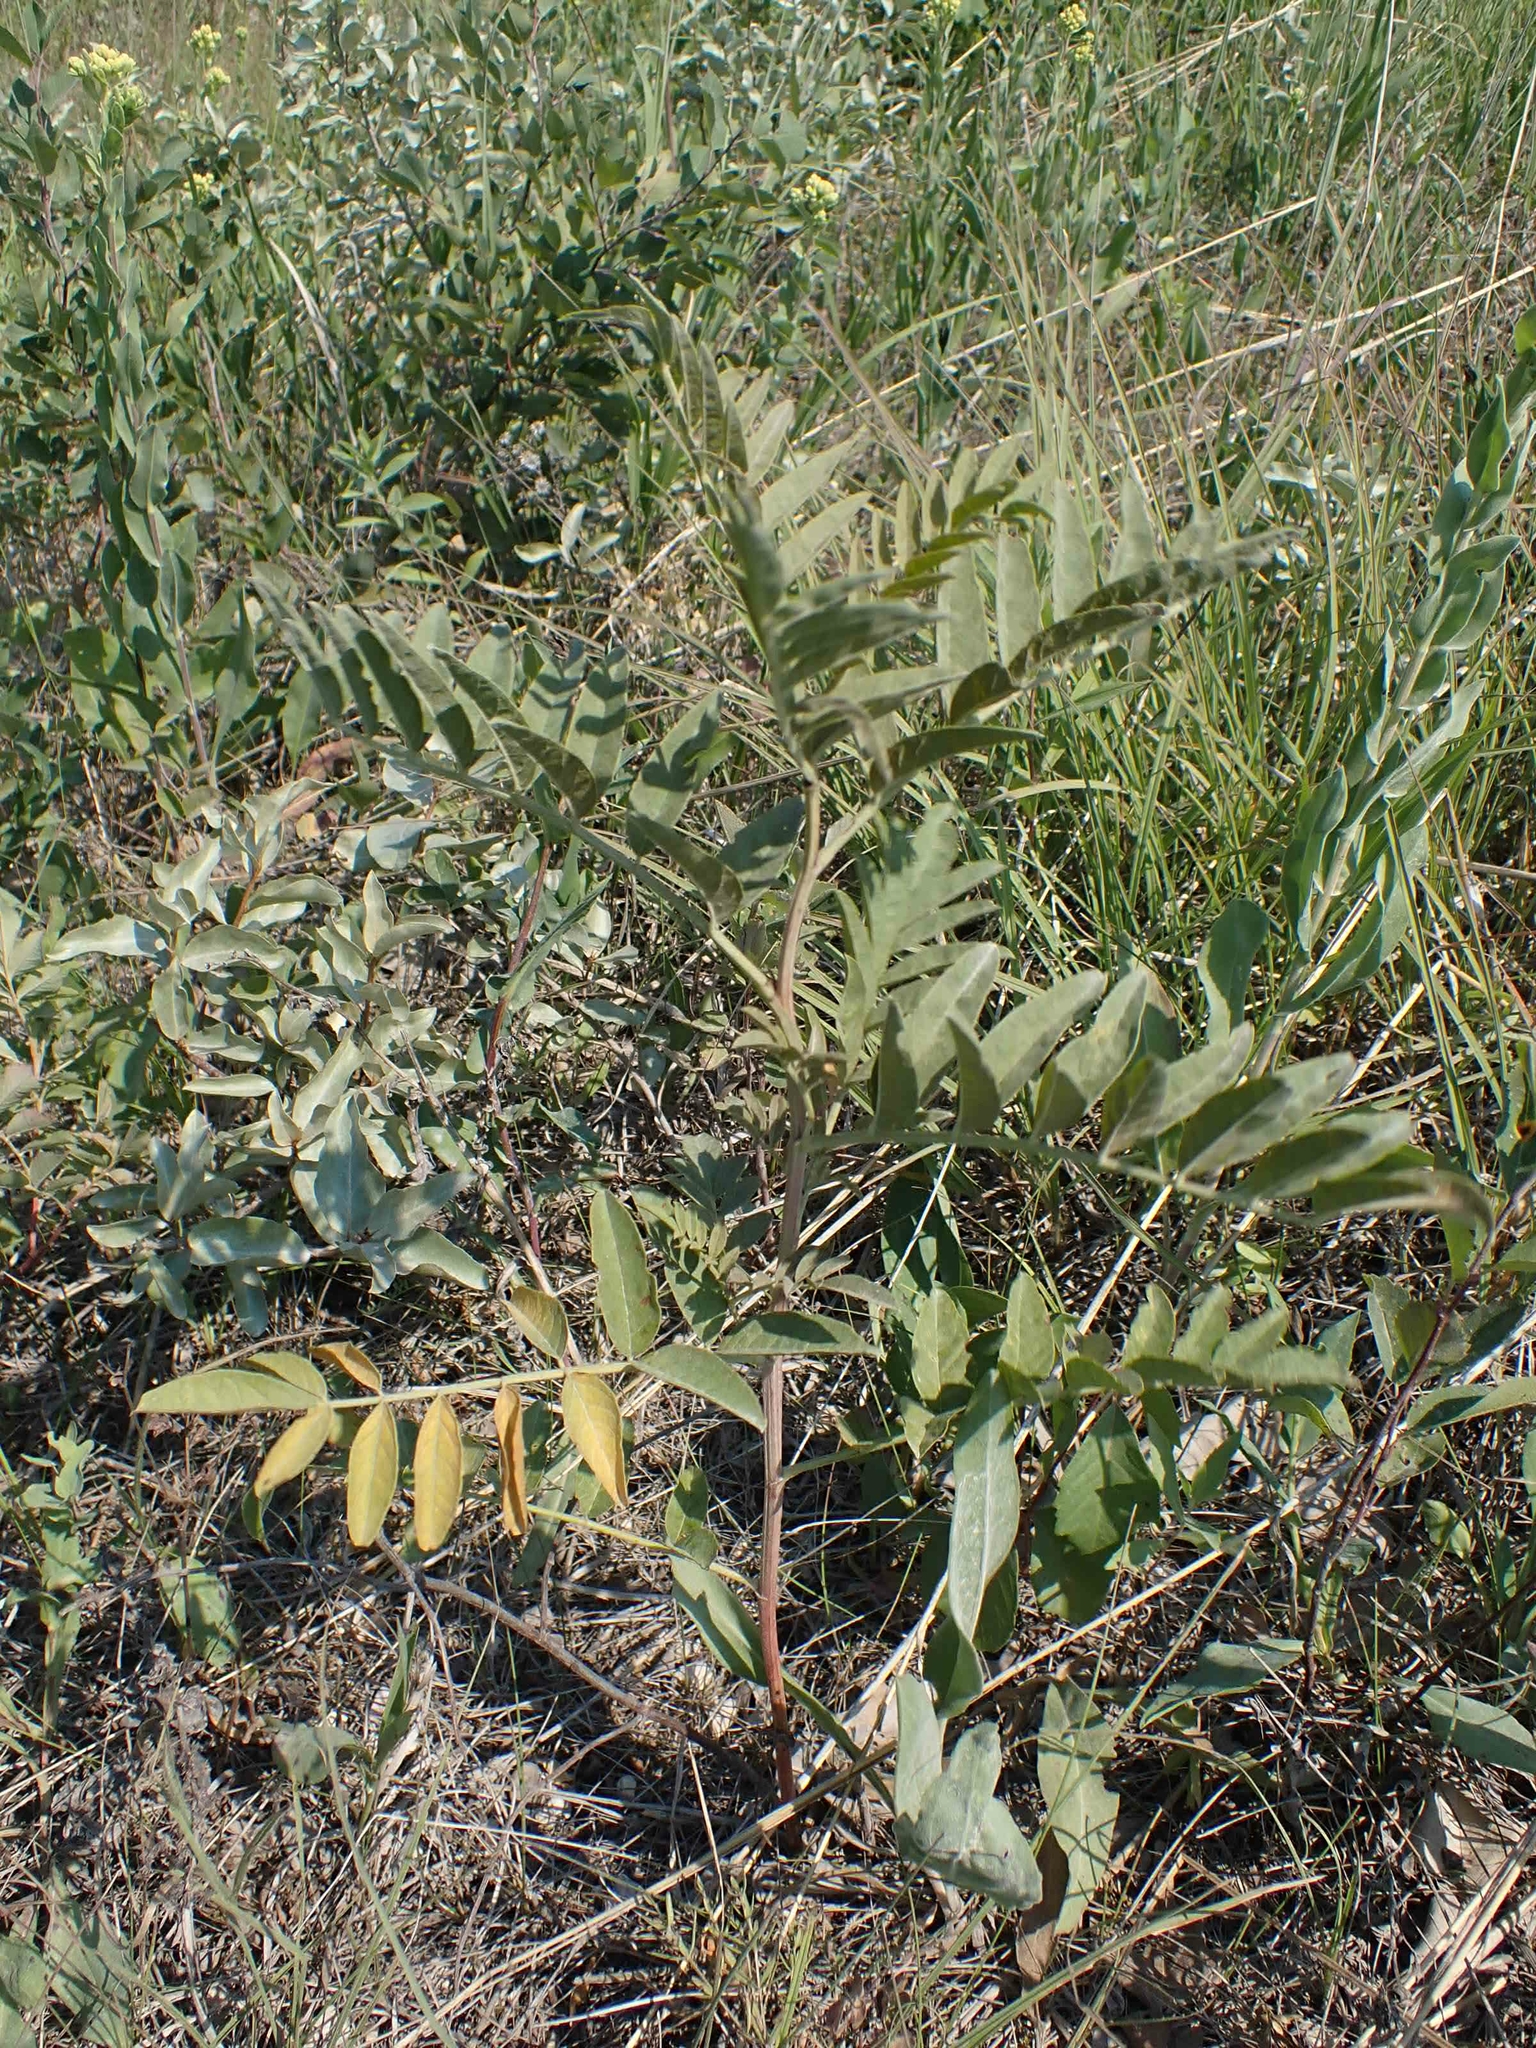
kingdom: Plantae
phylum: Tracheophyta
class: Magnoliopsida
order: Fabales
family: Fabaceae
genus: Glycyrrhiza
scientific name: Glycyrrhiza lepidota
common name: American liquorice
